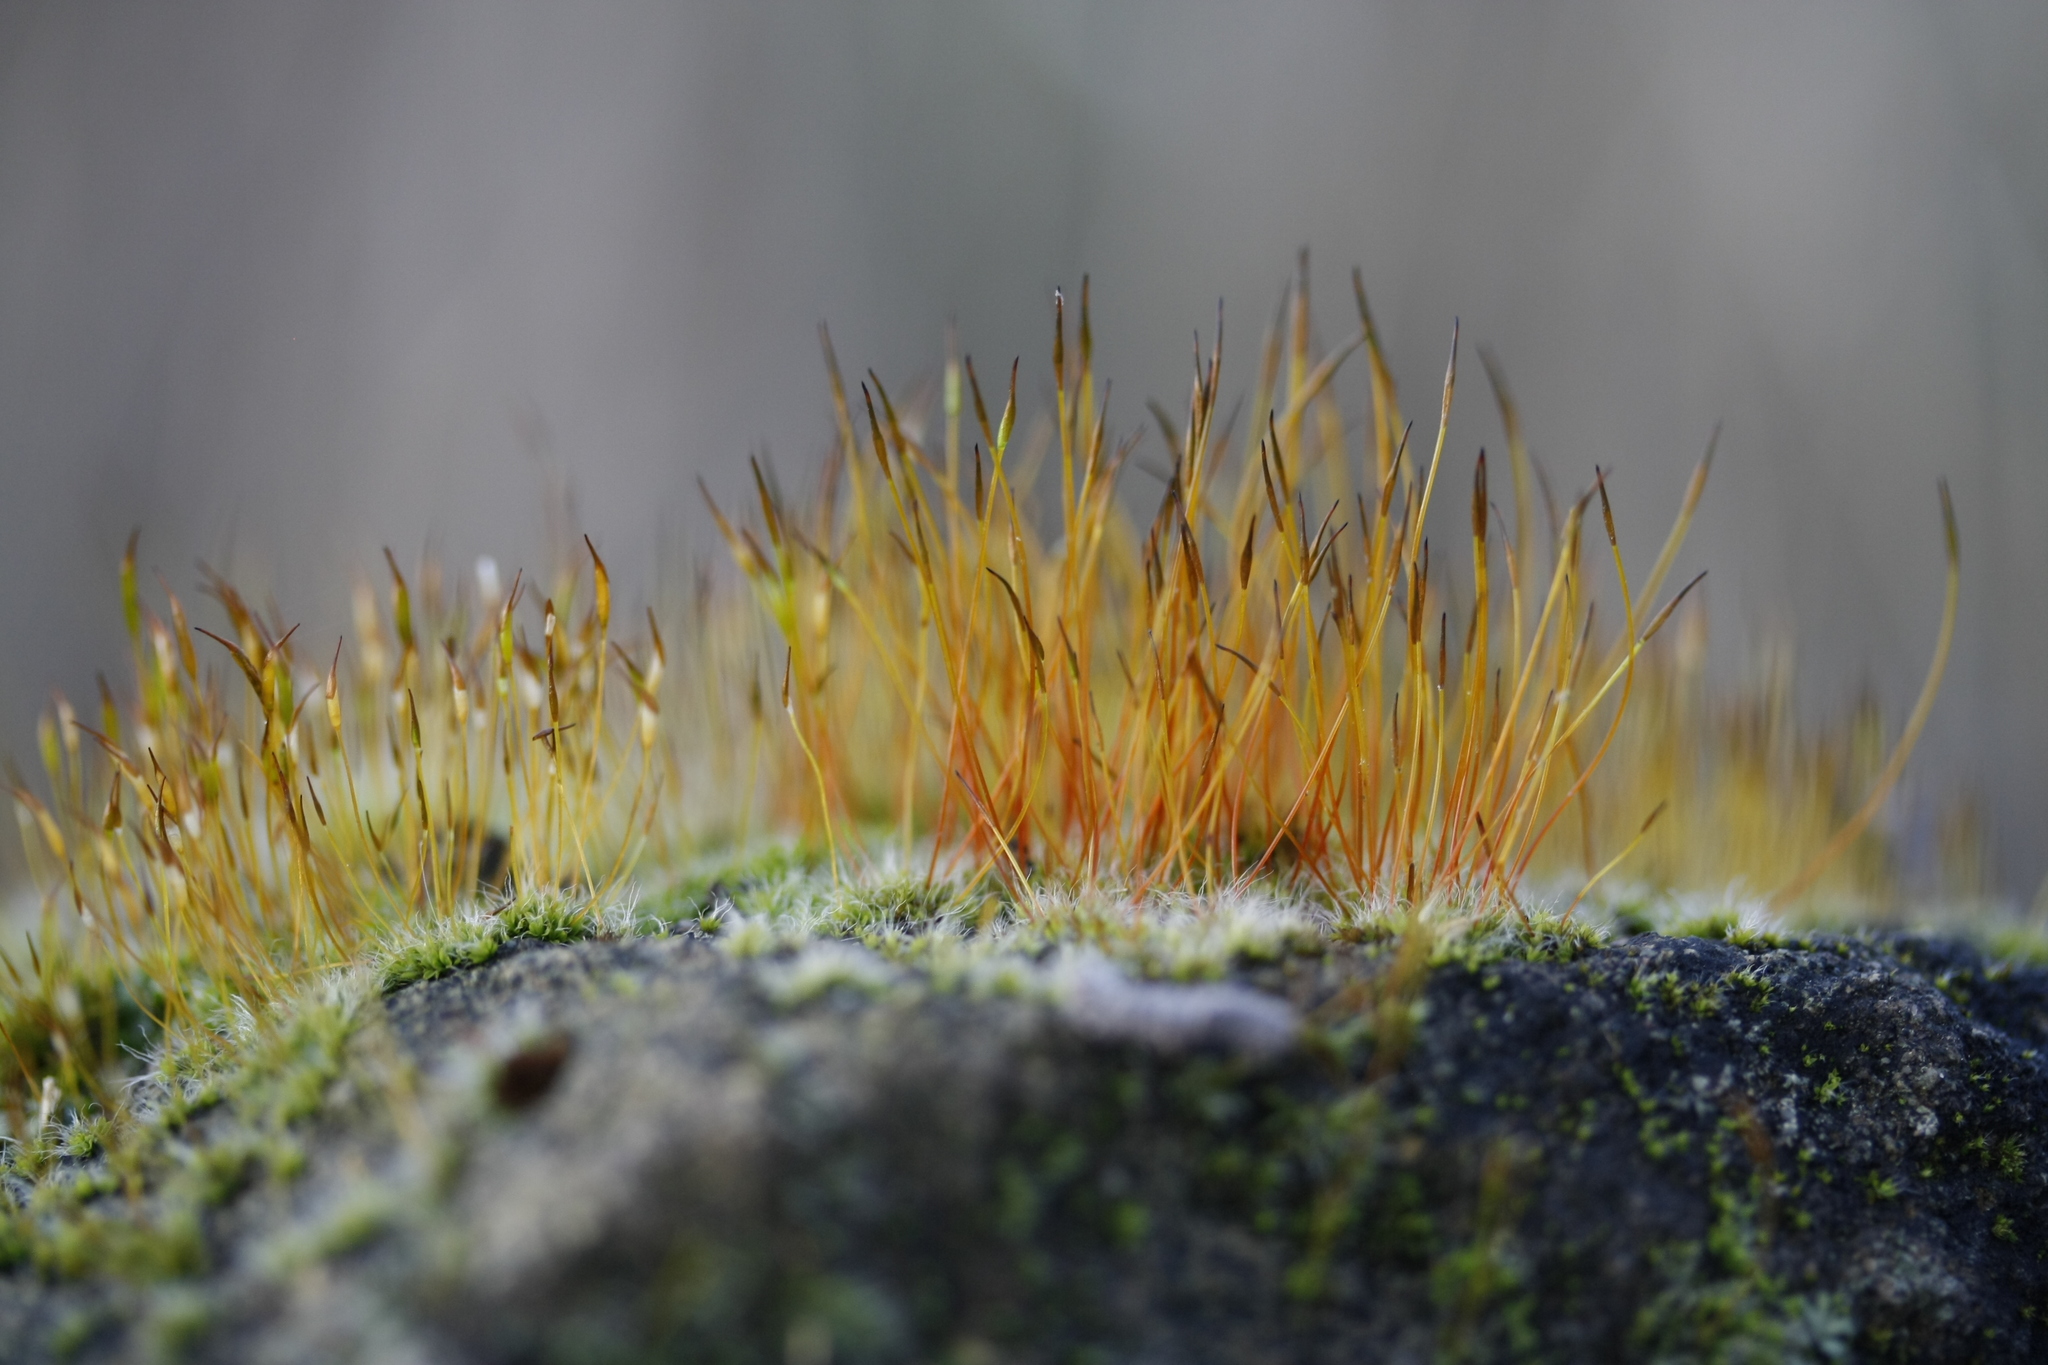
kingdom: Plantae
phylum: Bryophyta
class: Bryopsida
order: Pottiales
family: Pottiaceae
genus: Tortula
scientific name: Tortula muralis
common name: Wall screw-moss
